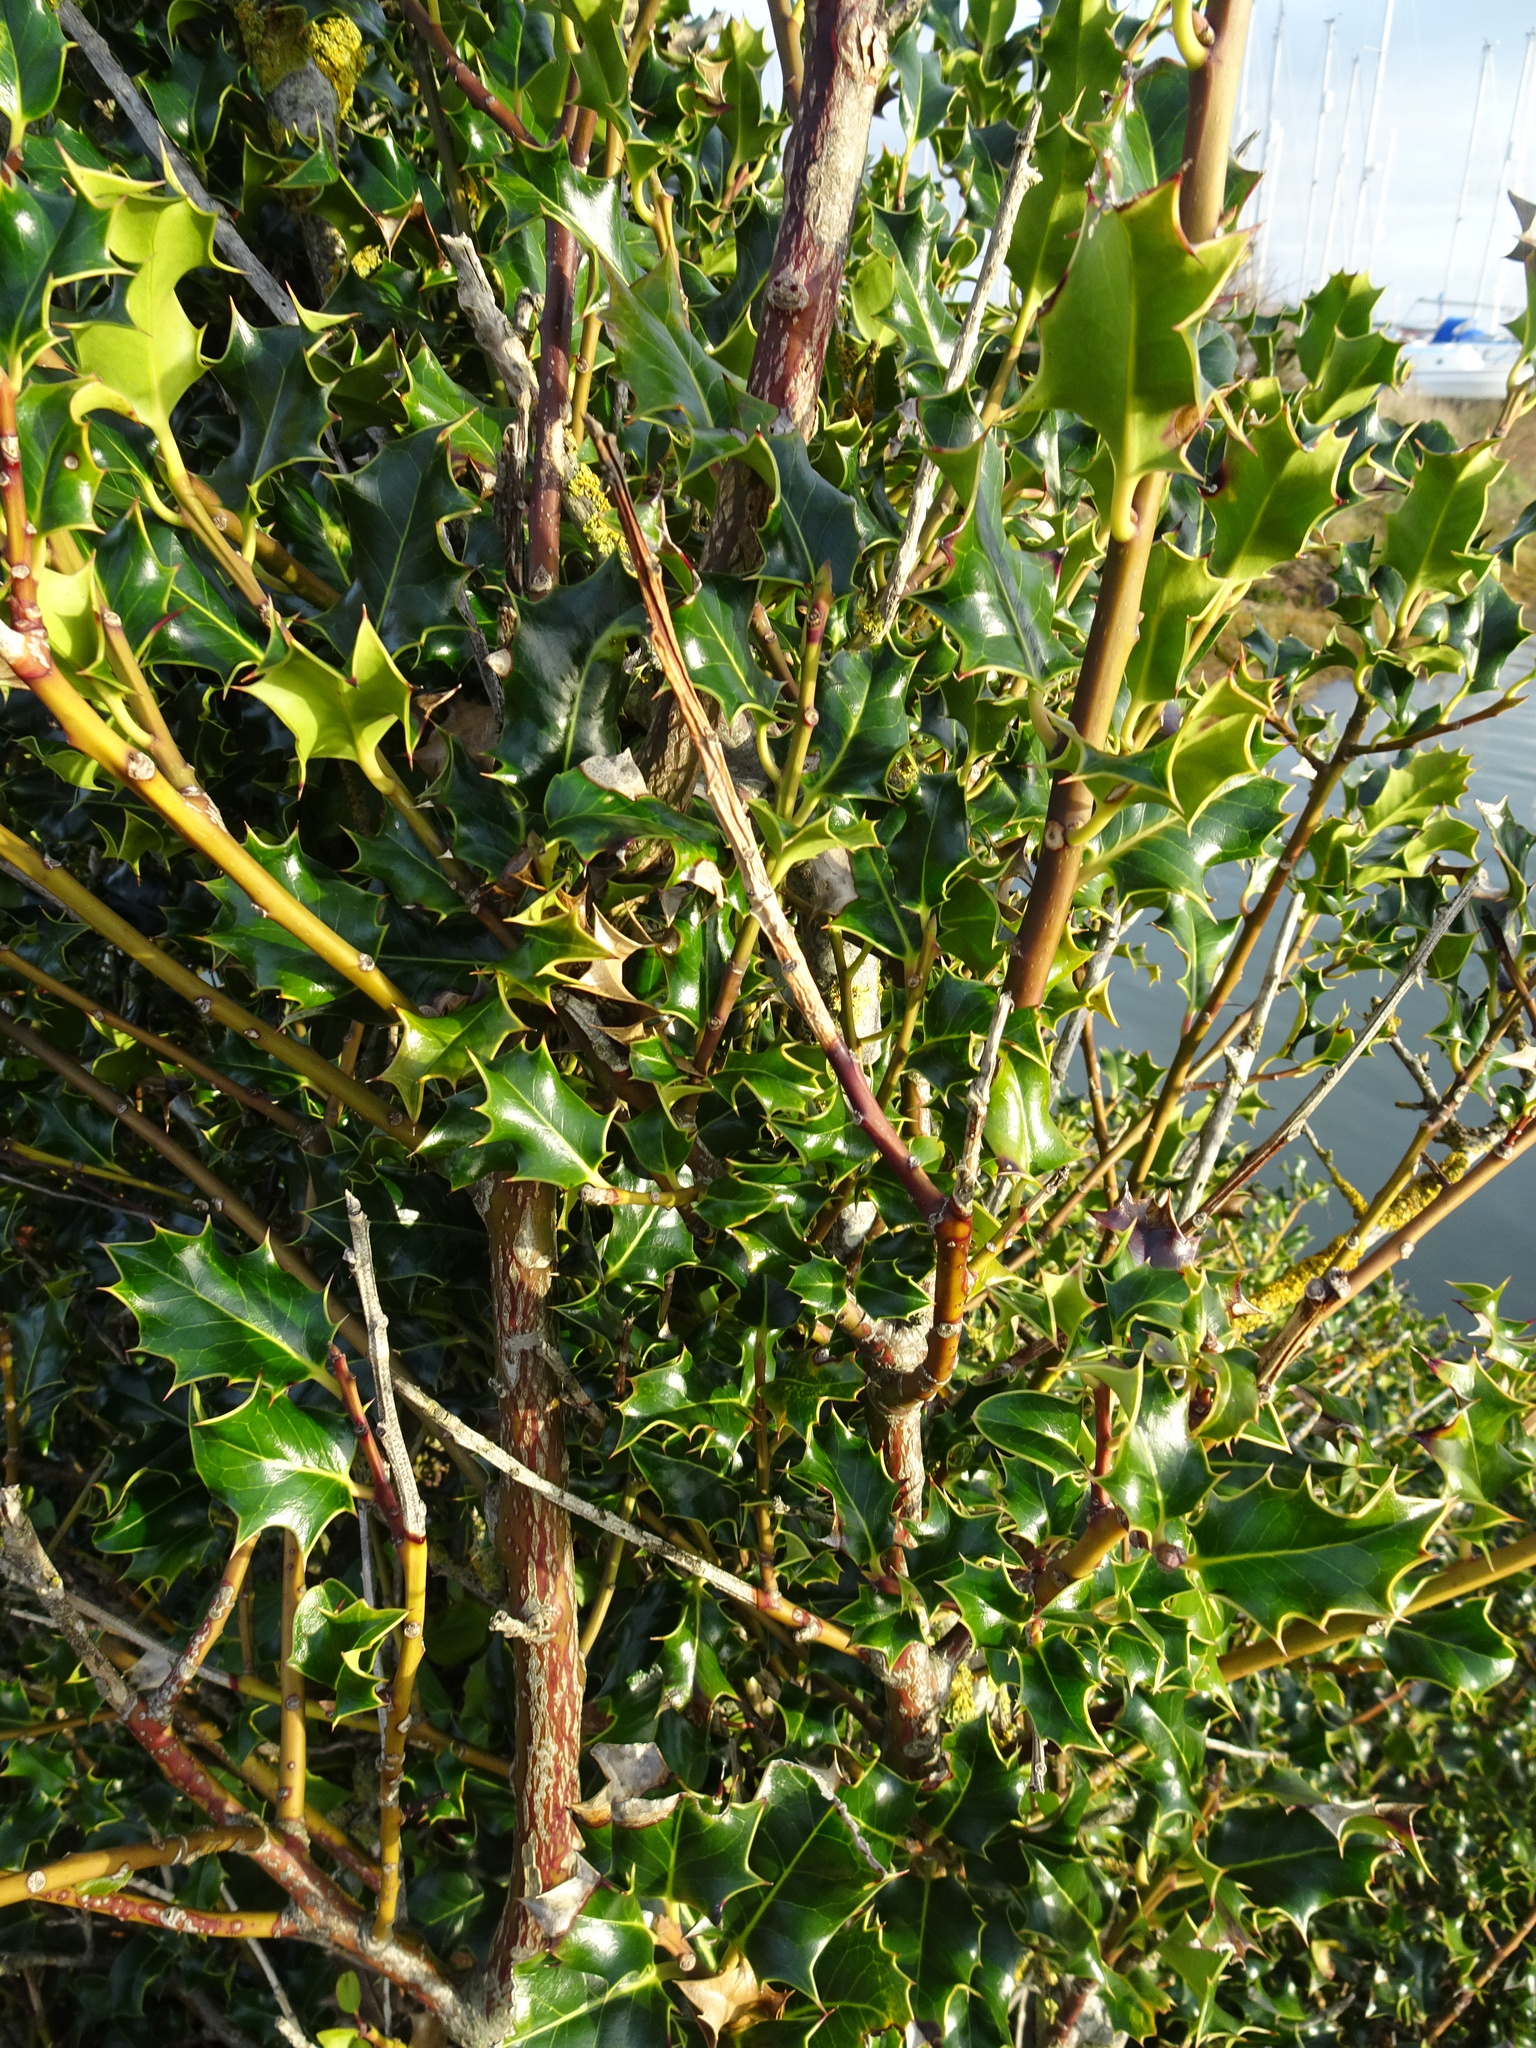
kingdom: Plantae
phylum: Tracheophyta
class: Magnoliopsida
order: Aquifoliales
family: Aquifoliaceae
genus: Ilex
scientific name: Ilex aquifolium
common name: English holly
